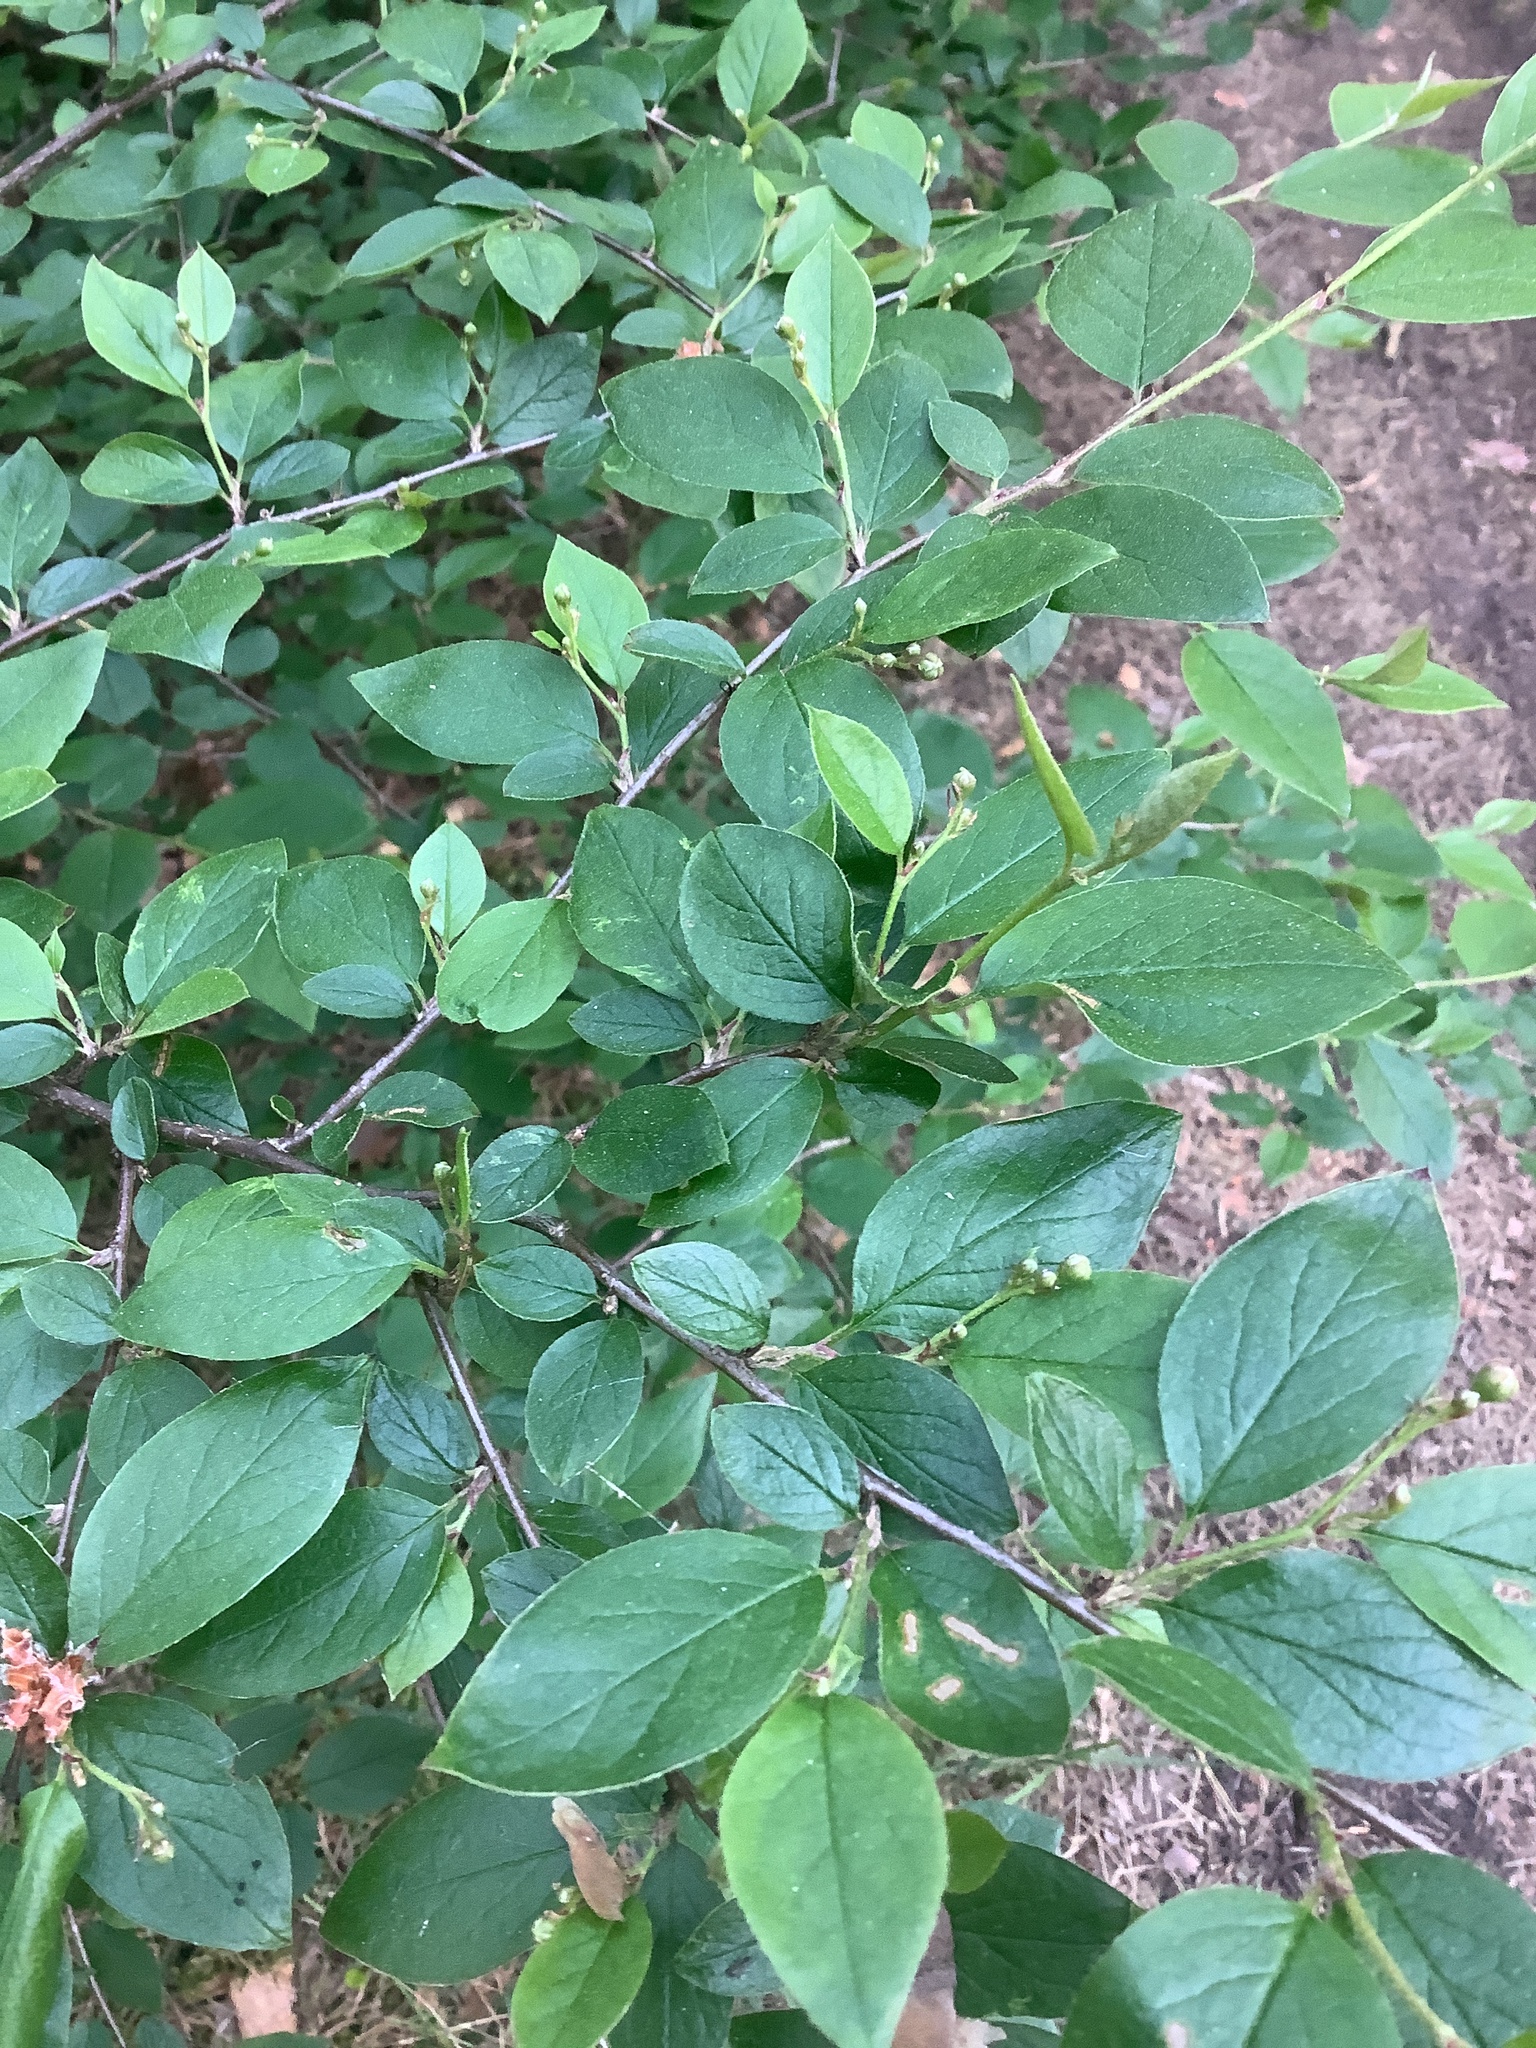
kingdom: Plantae
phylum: Tracheophyta
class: Magnoliopsida
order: Rosales
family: Rosaceae
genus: Cotoneaster
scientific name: Cotoneaster acutifolius
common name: Peking cotoneaster
